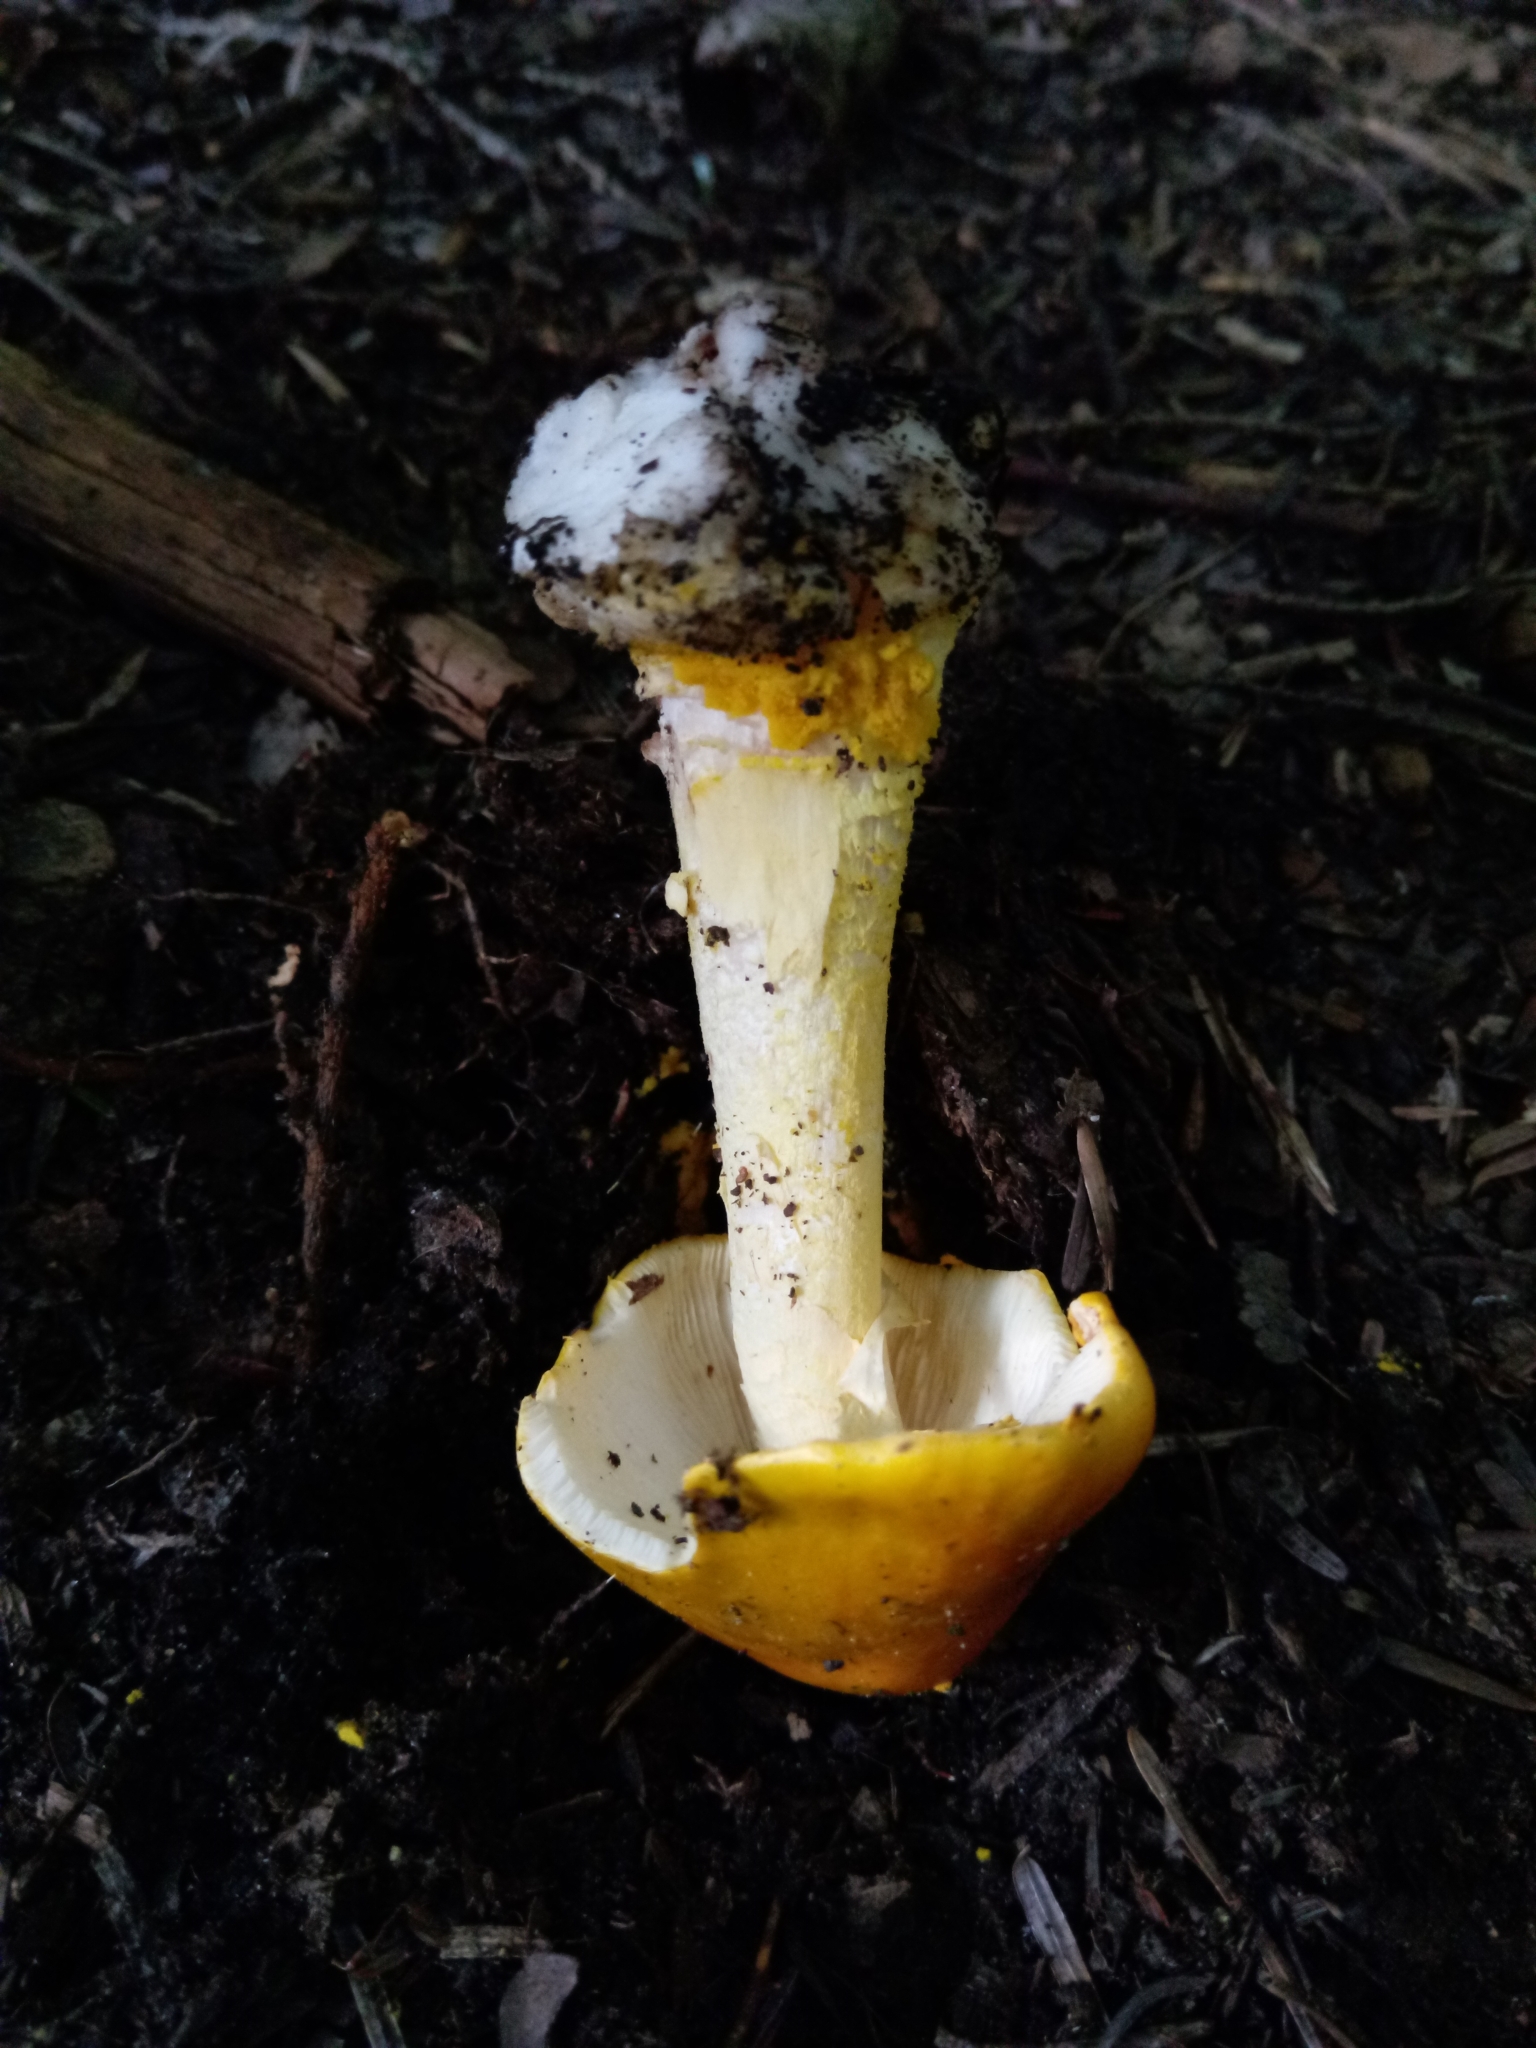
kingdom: Fungi
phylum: Basidiomycota
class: Agaricomycetes
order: Agaricales
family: Amanitaceae
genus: Amanita
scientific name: Amanita elongata
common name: Peck's yellow dust amanita
